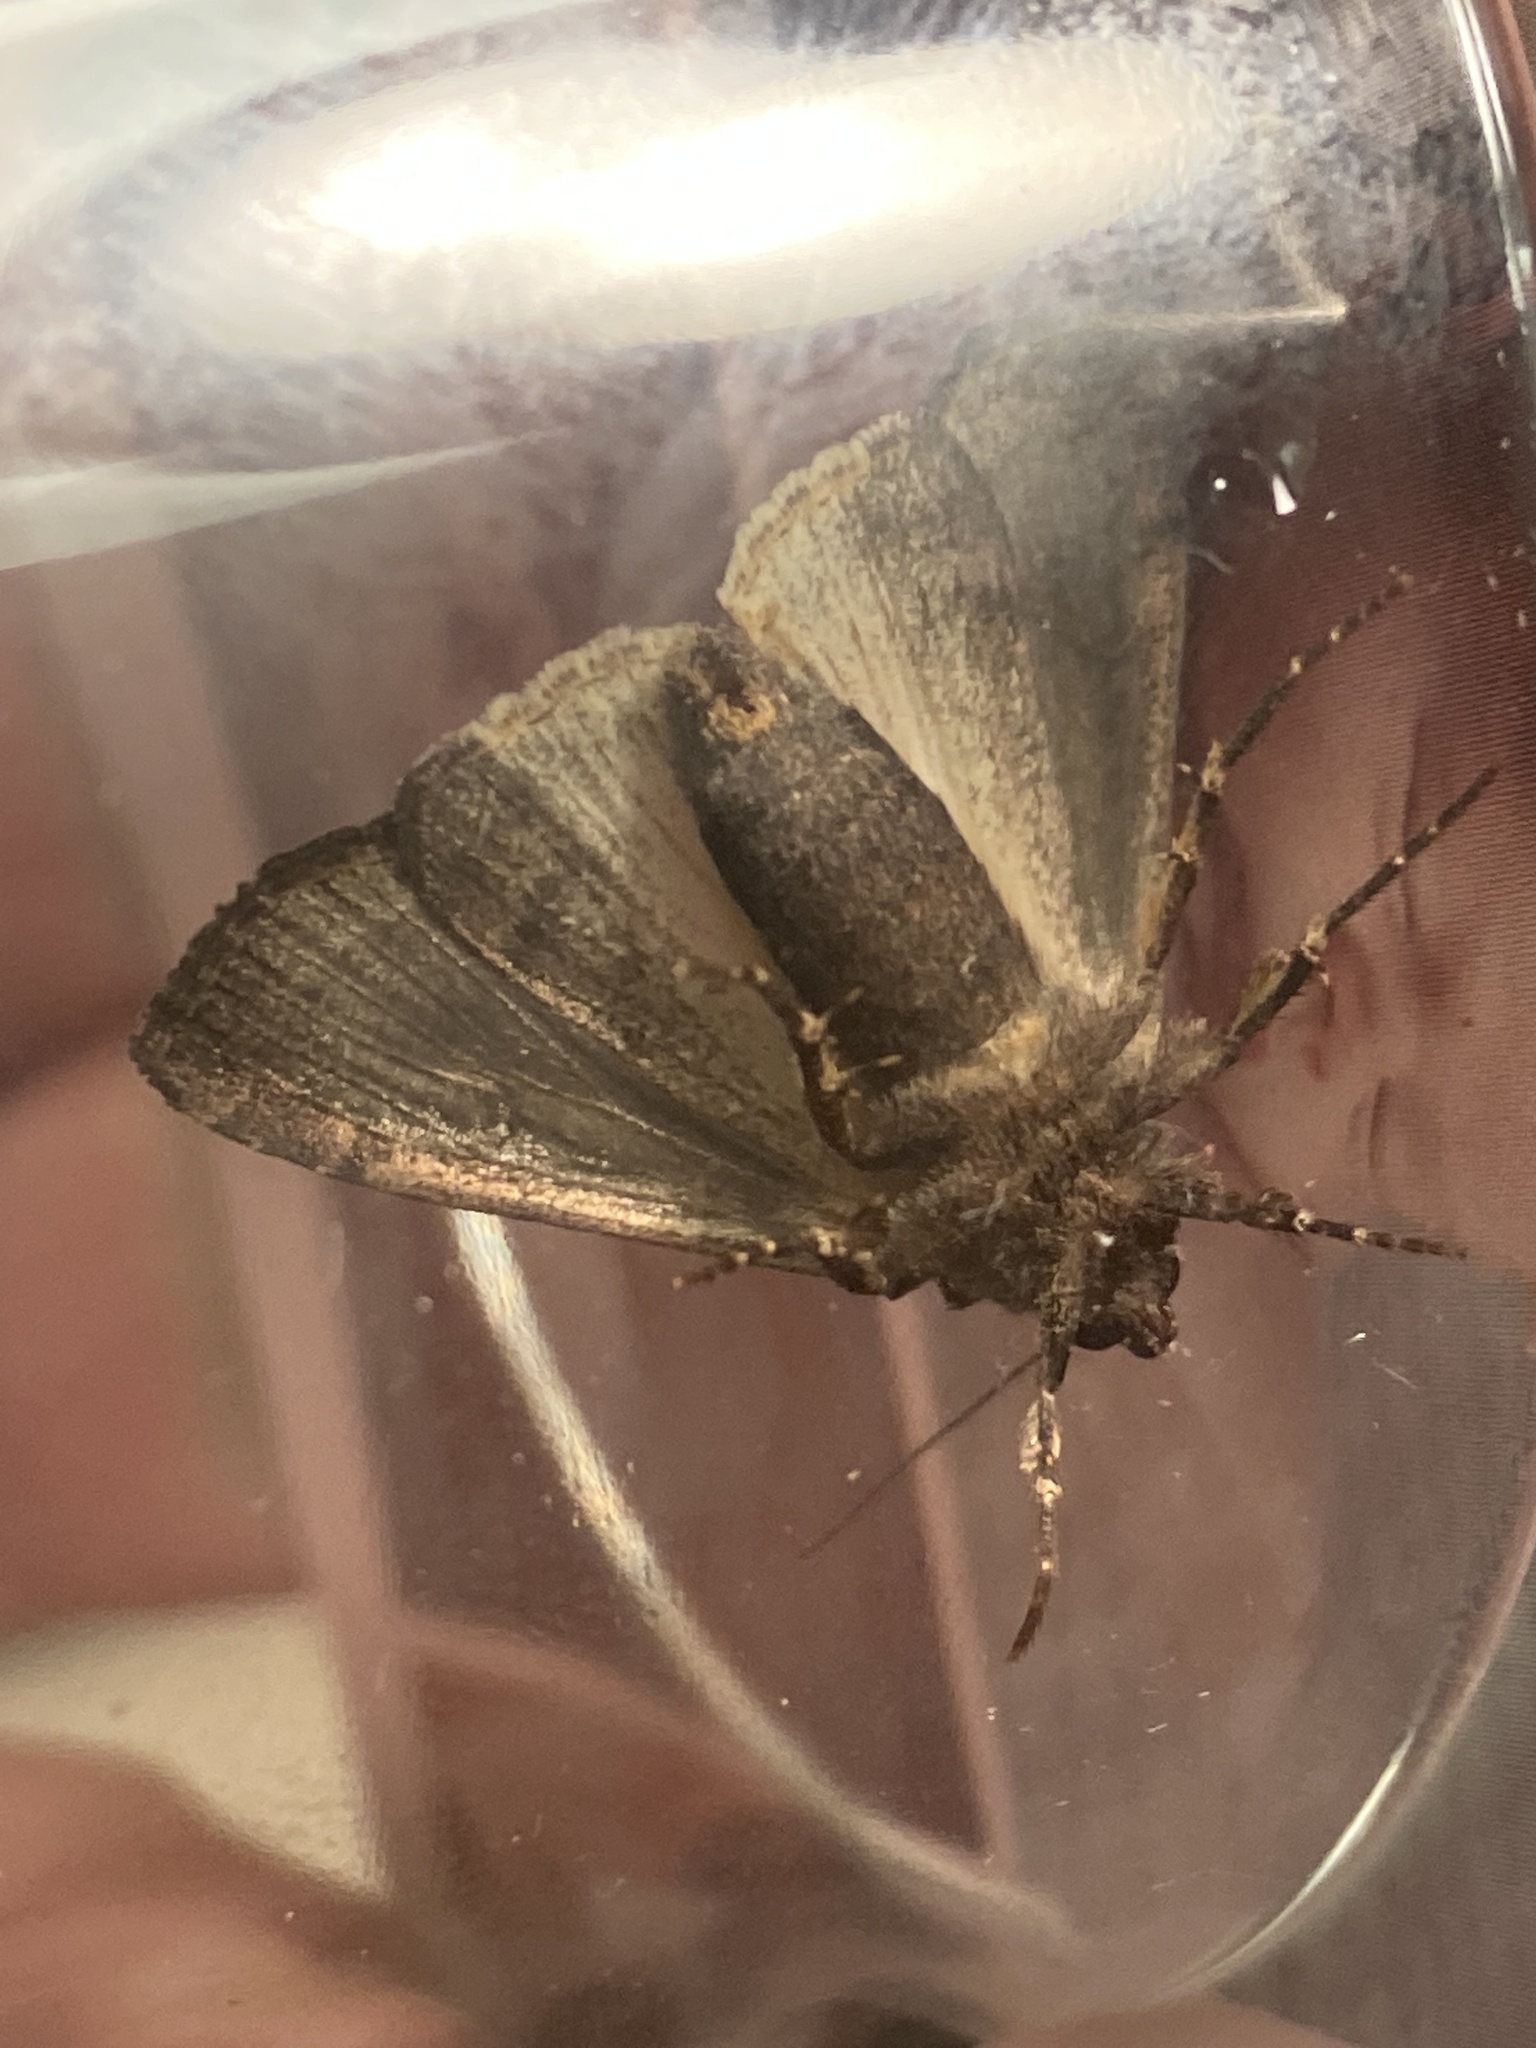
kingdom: Animalia
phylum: Arthropoda
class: Insecta
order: Lepidoptera
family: Noctuidae
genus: Xestia
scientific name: Xestia c-nigrum
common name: Setaceous hebrew character
